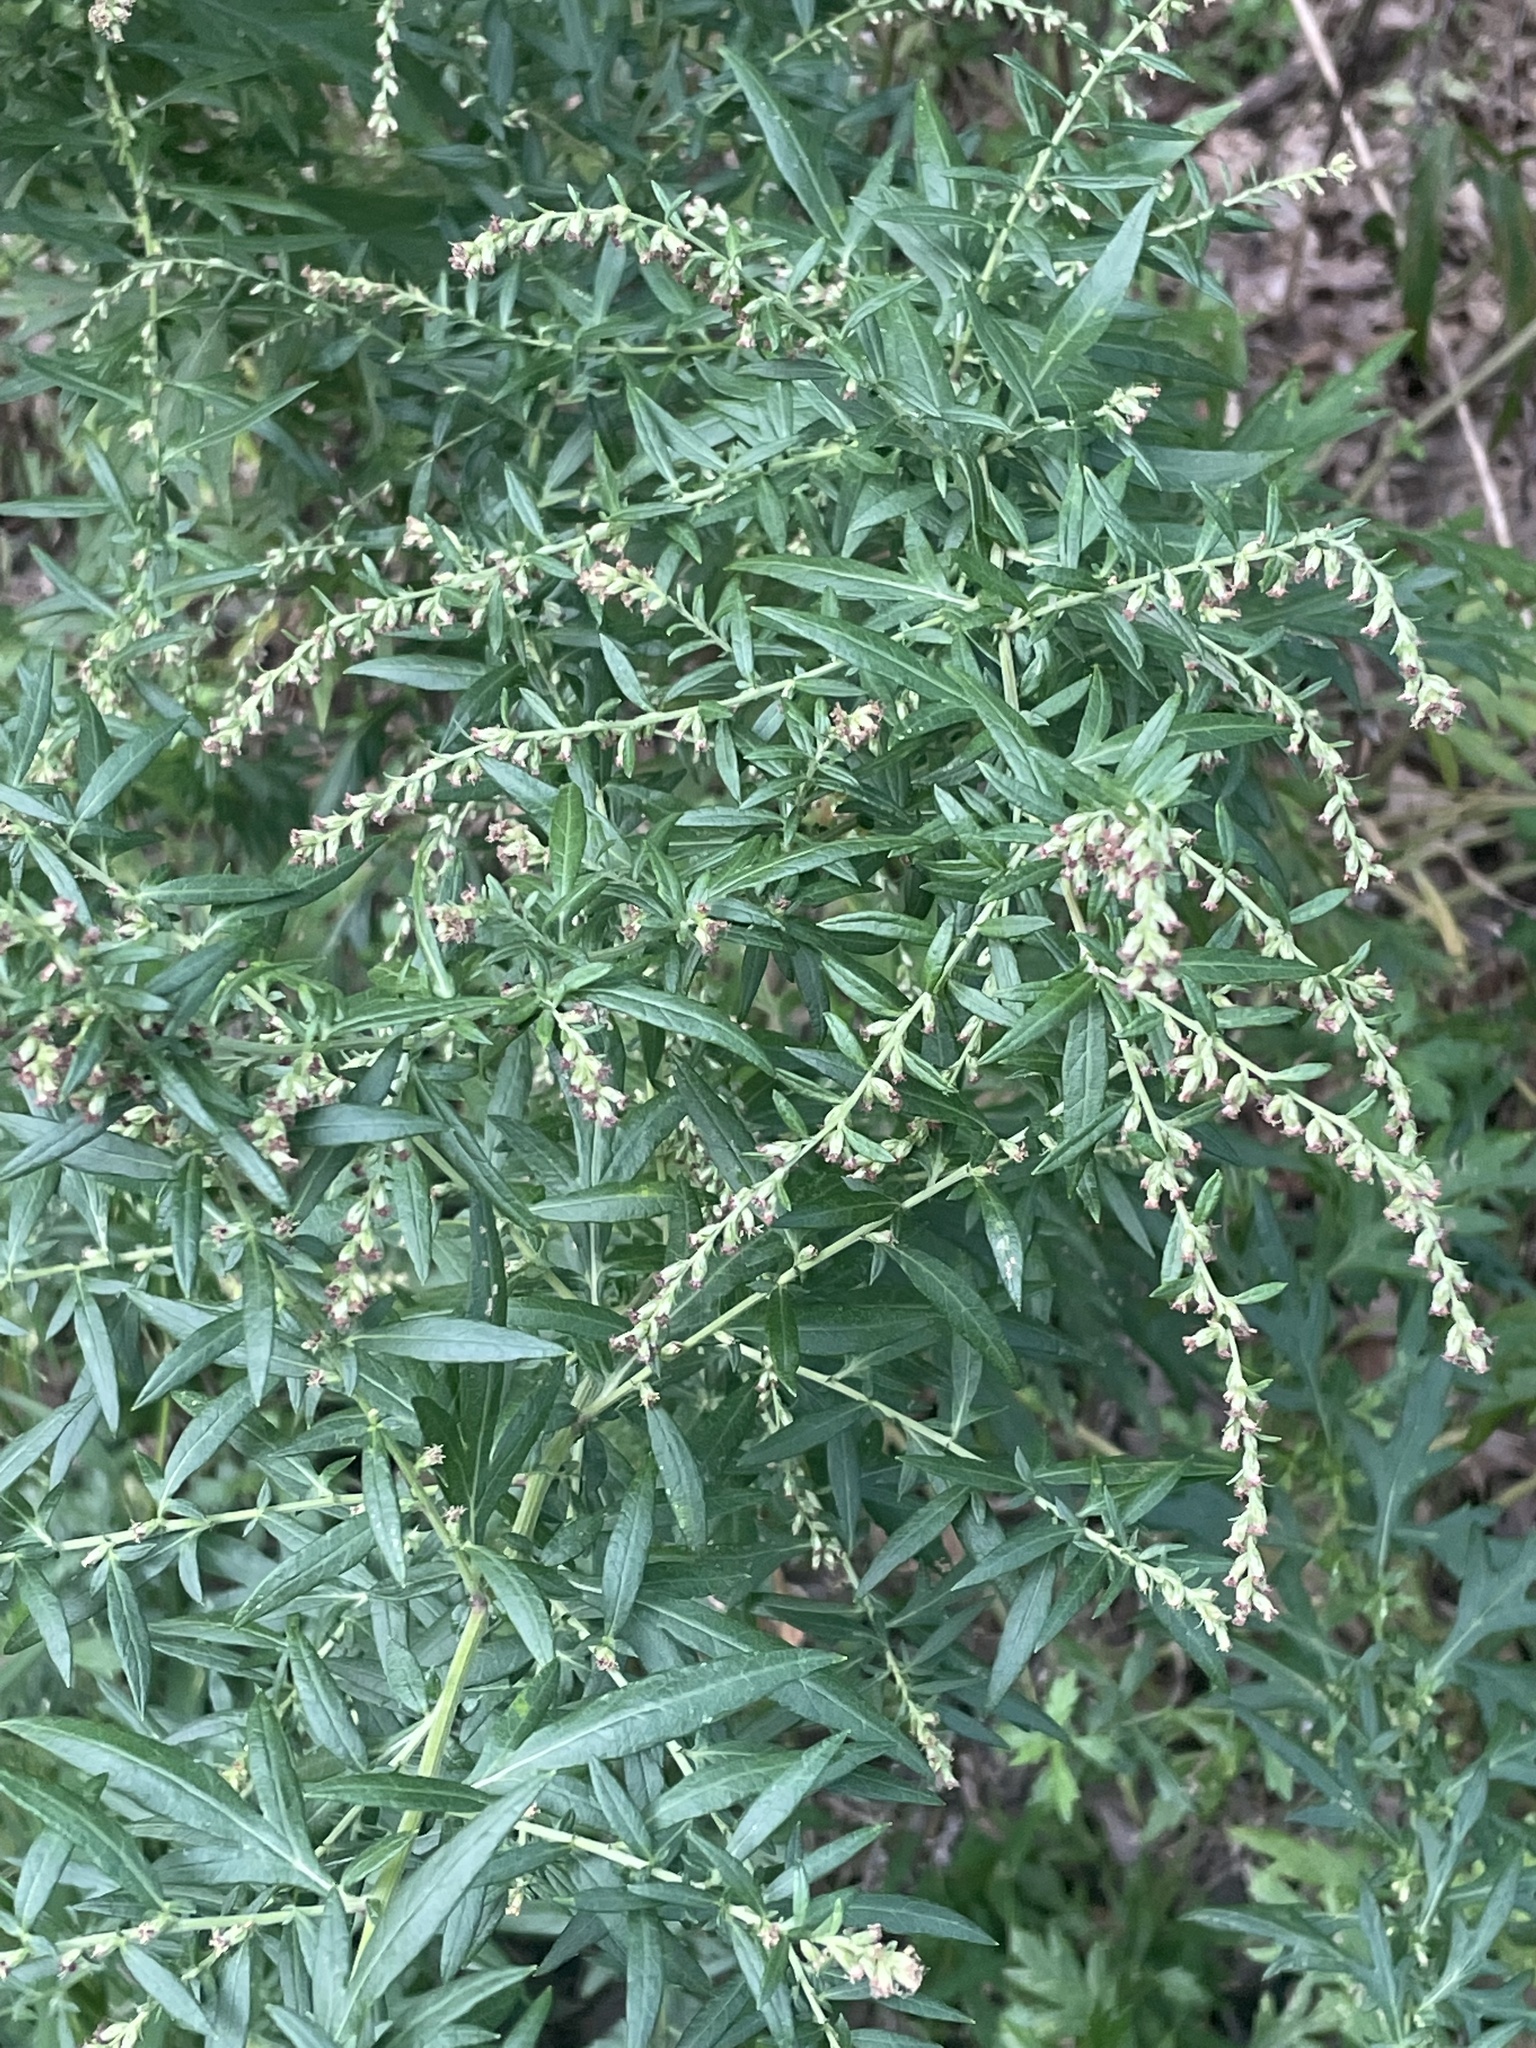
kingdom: Plantae
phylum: Tracheophyta
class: Magnoliopsida
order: Asterales
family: Asteraceae
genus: Artemisia
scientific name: Artemisia vulgaris
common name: Mugwort
